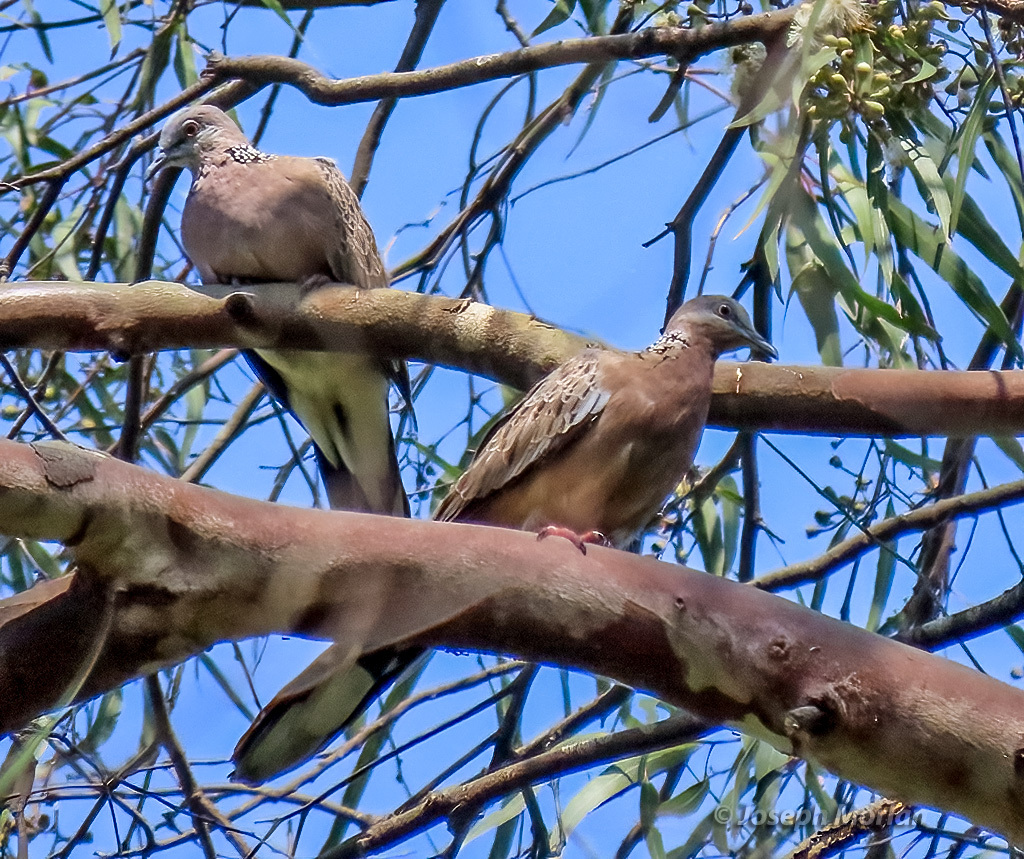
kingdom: Animalia
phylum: Chordata
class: Aves
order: Columbiformes
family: Columbidae
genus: Spilopelia
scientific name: Spilopelia chinensis
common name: Spotted dove
